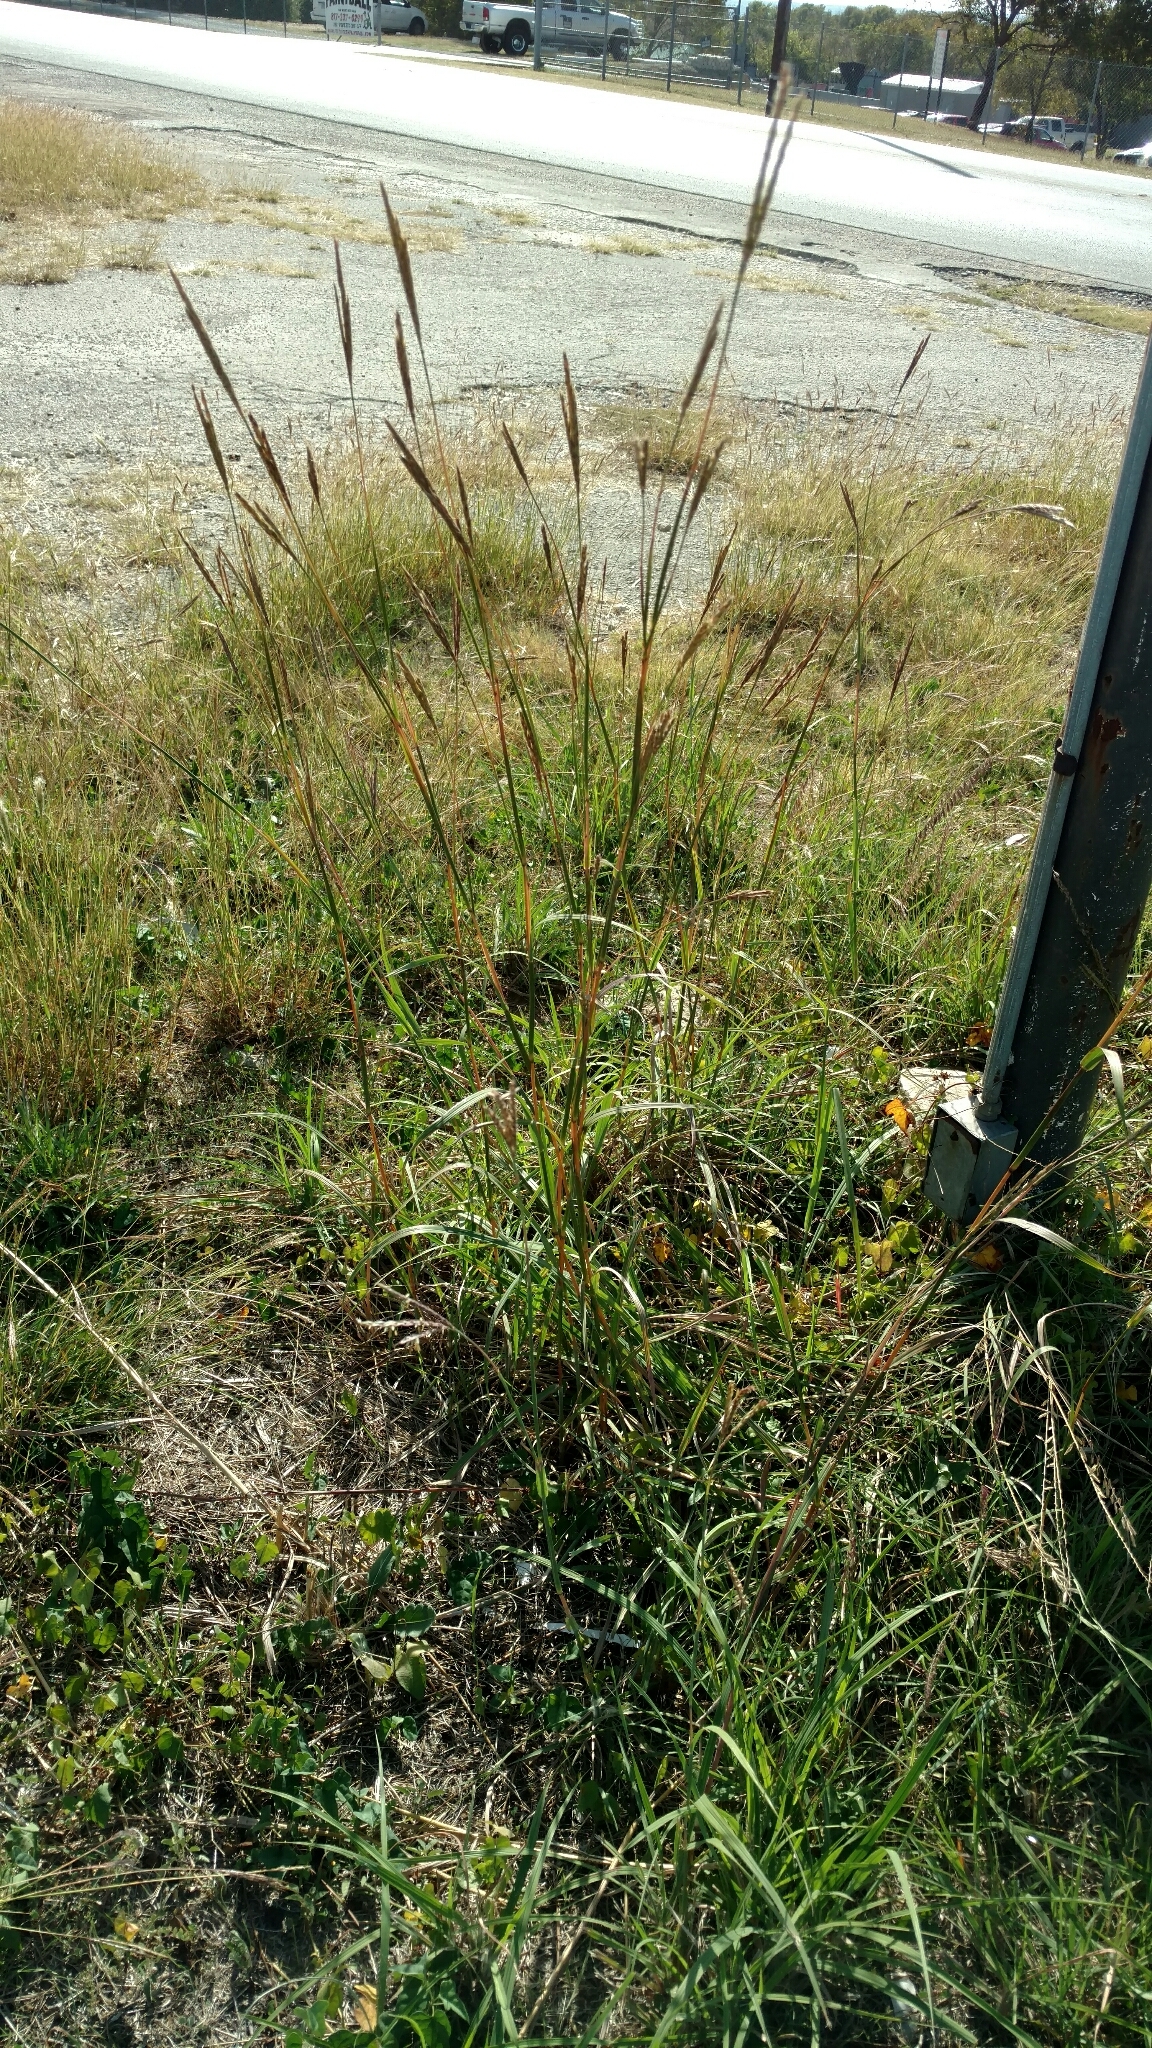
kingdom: Plantae
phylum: Tracheophyta
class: Liliopsida
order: Poales
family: Poaceae
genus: Andropogon
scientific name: Andropogon gerardi
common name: Big bluestem
